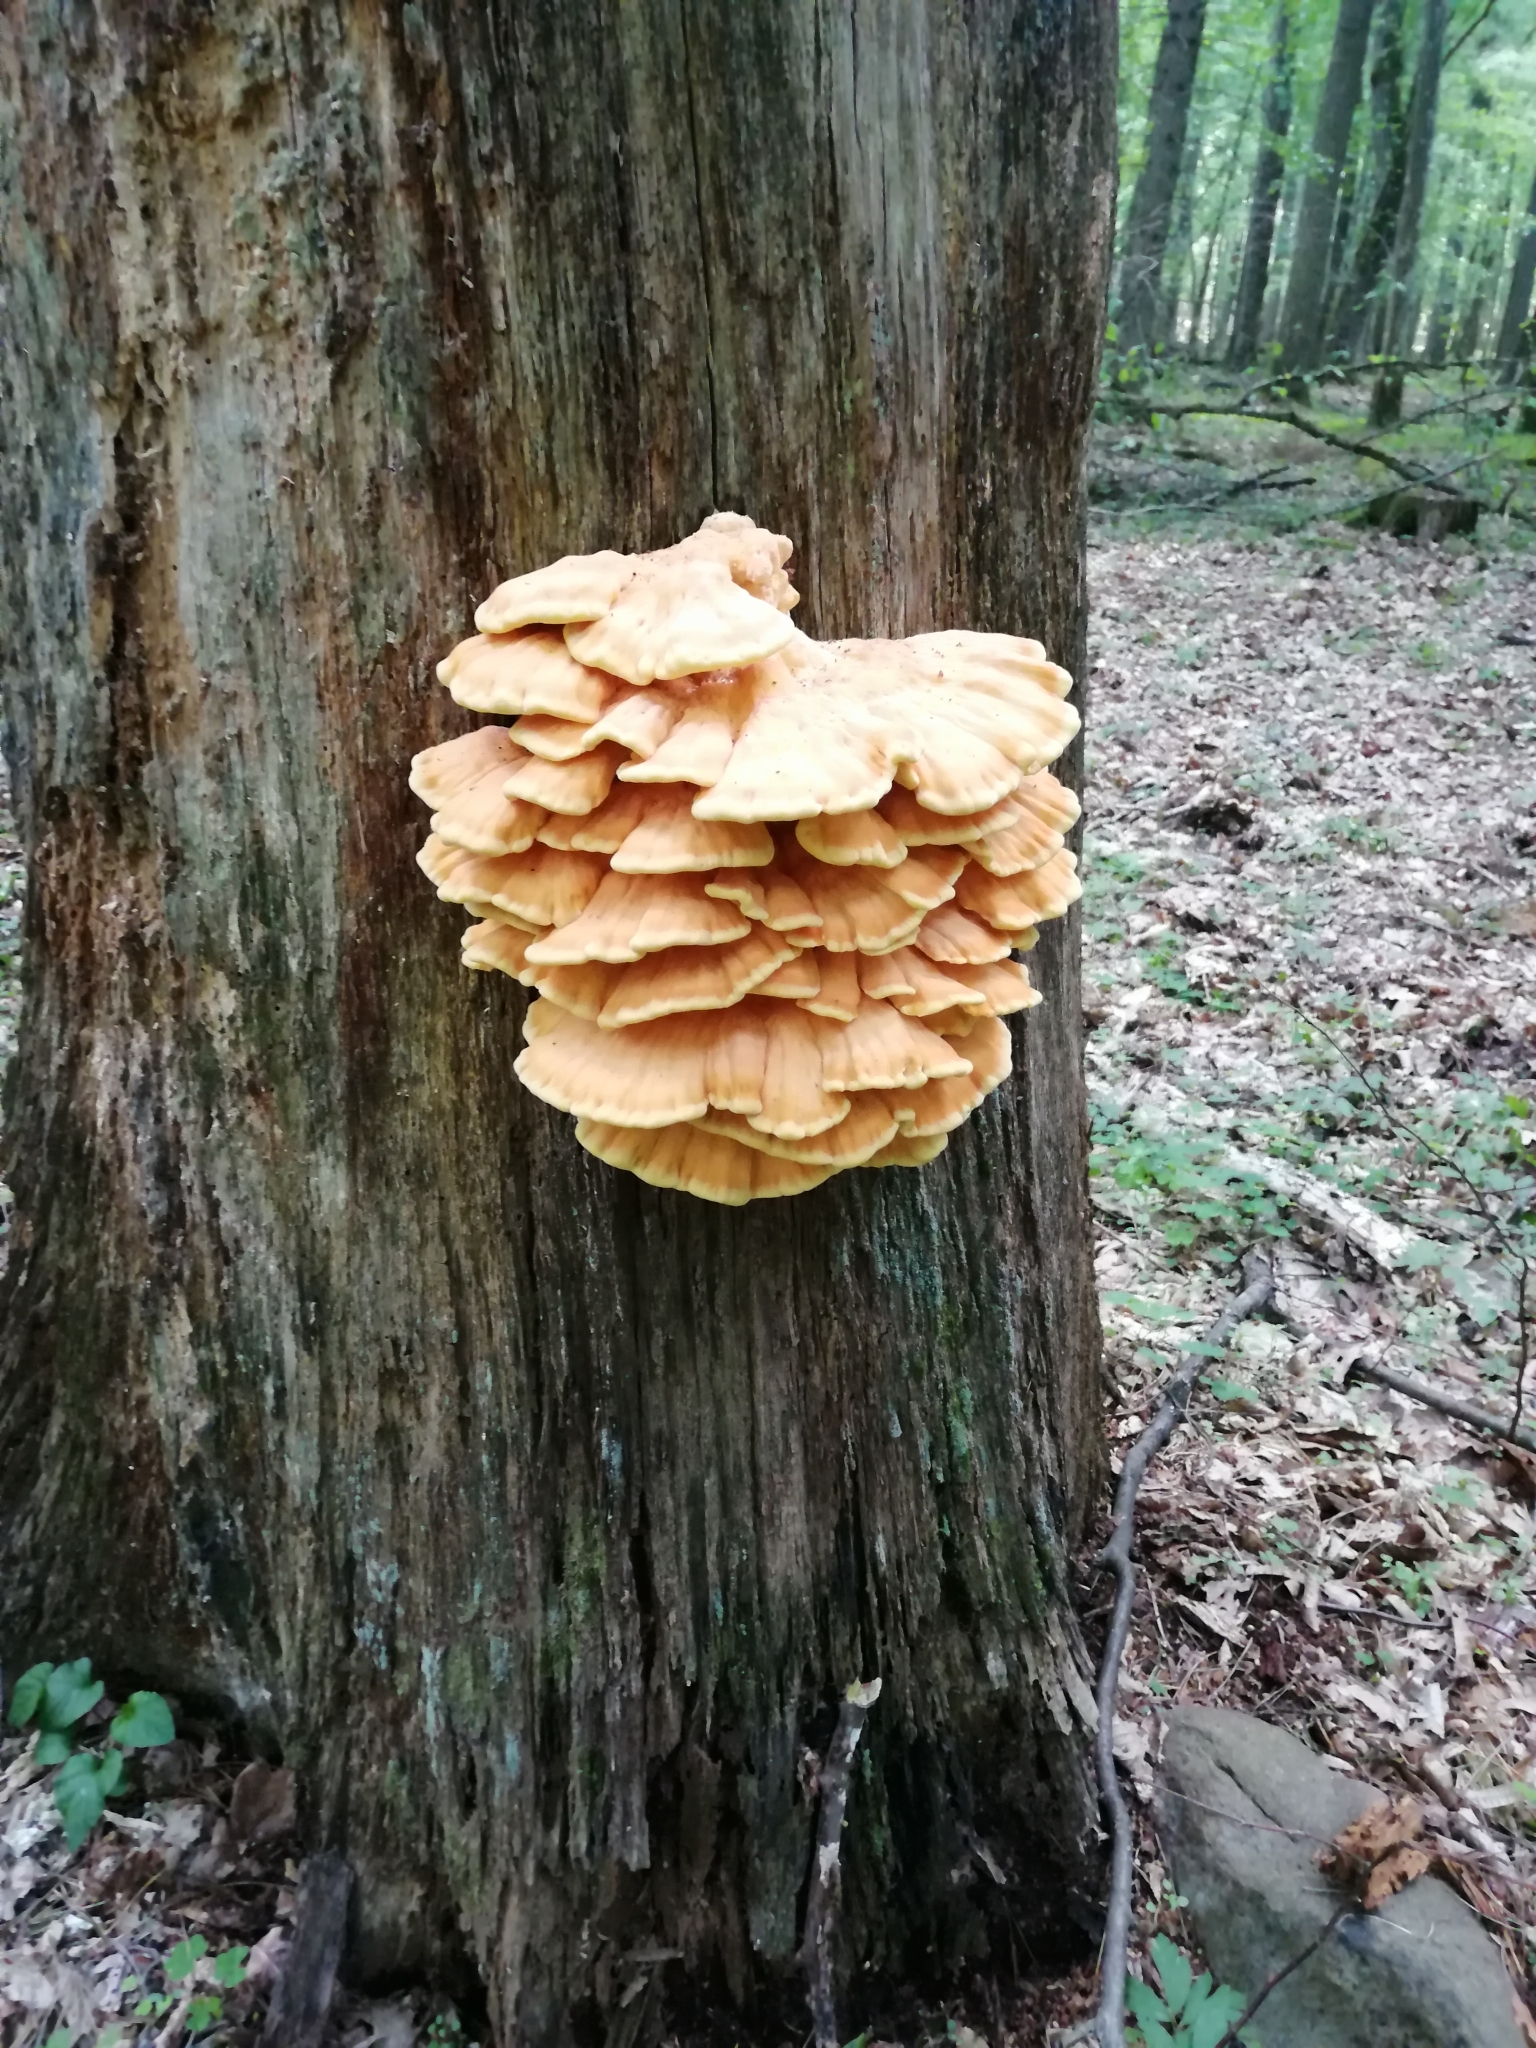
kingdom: Fungi
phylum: Basidiomycota
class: Agaricomycetes
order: Polyporales
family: Laetiporaceae
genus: Laetiporus
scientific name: Laetiporus sulphureus
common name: Chicken of the woods
